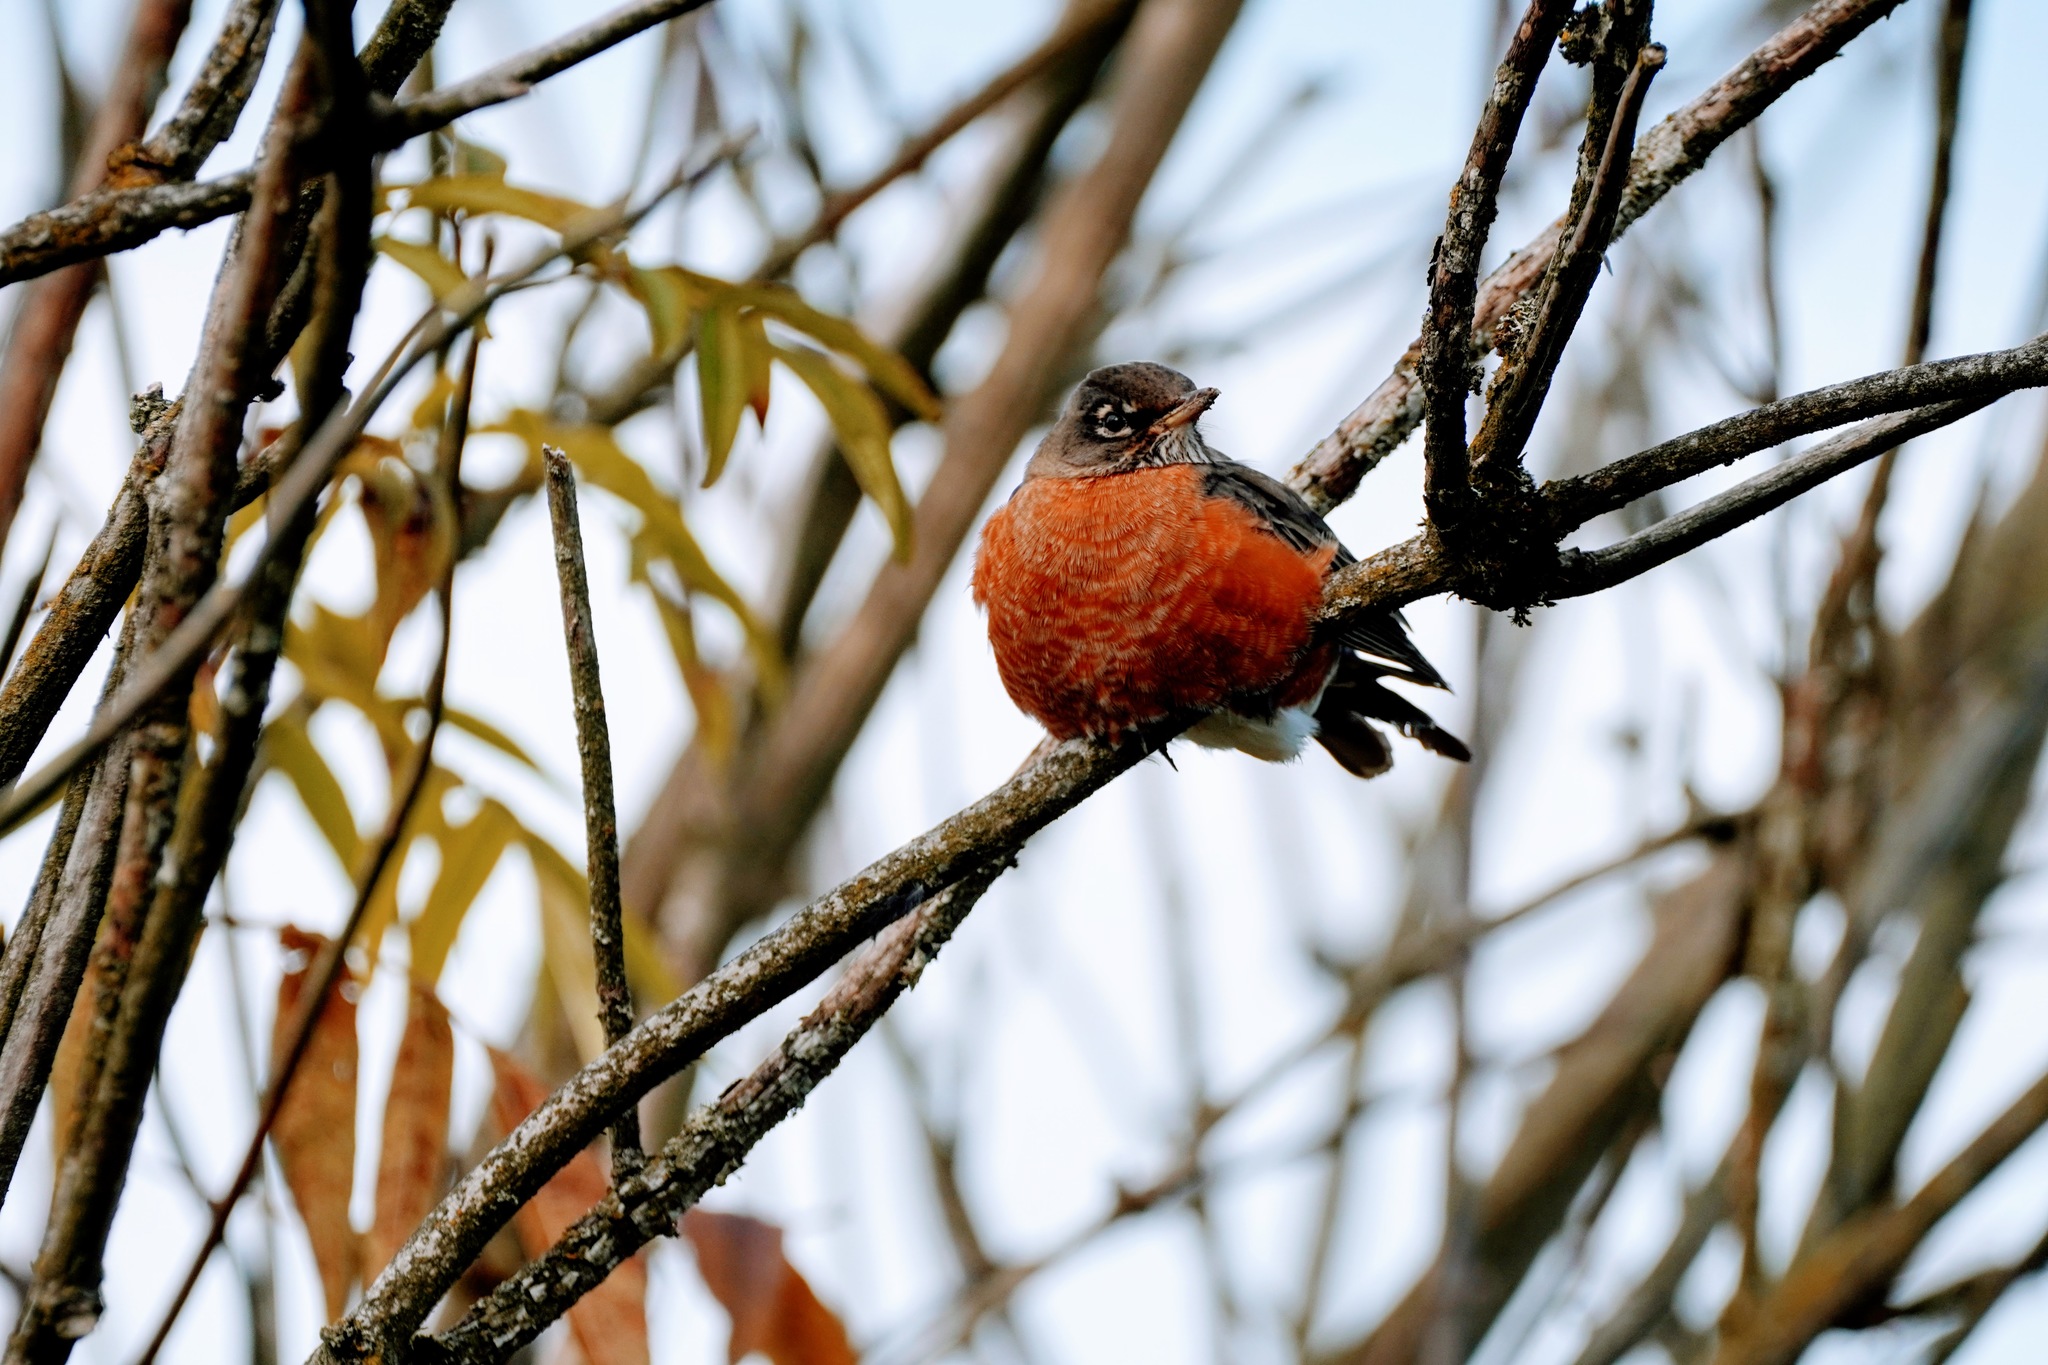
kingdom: Animalia
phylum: Chordata
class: Aves
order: Passeriformes
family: Turdidae
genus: Turdus
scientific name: Turdus migratorius
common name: American robin
